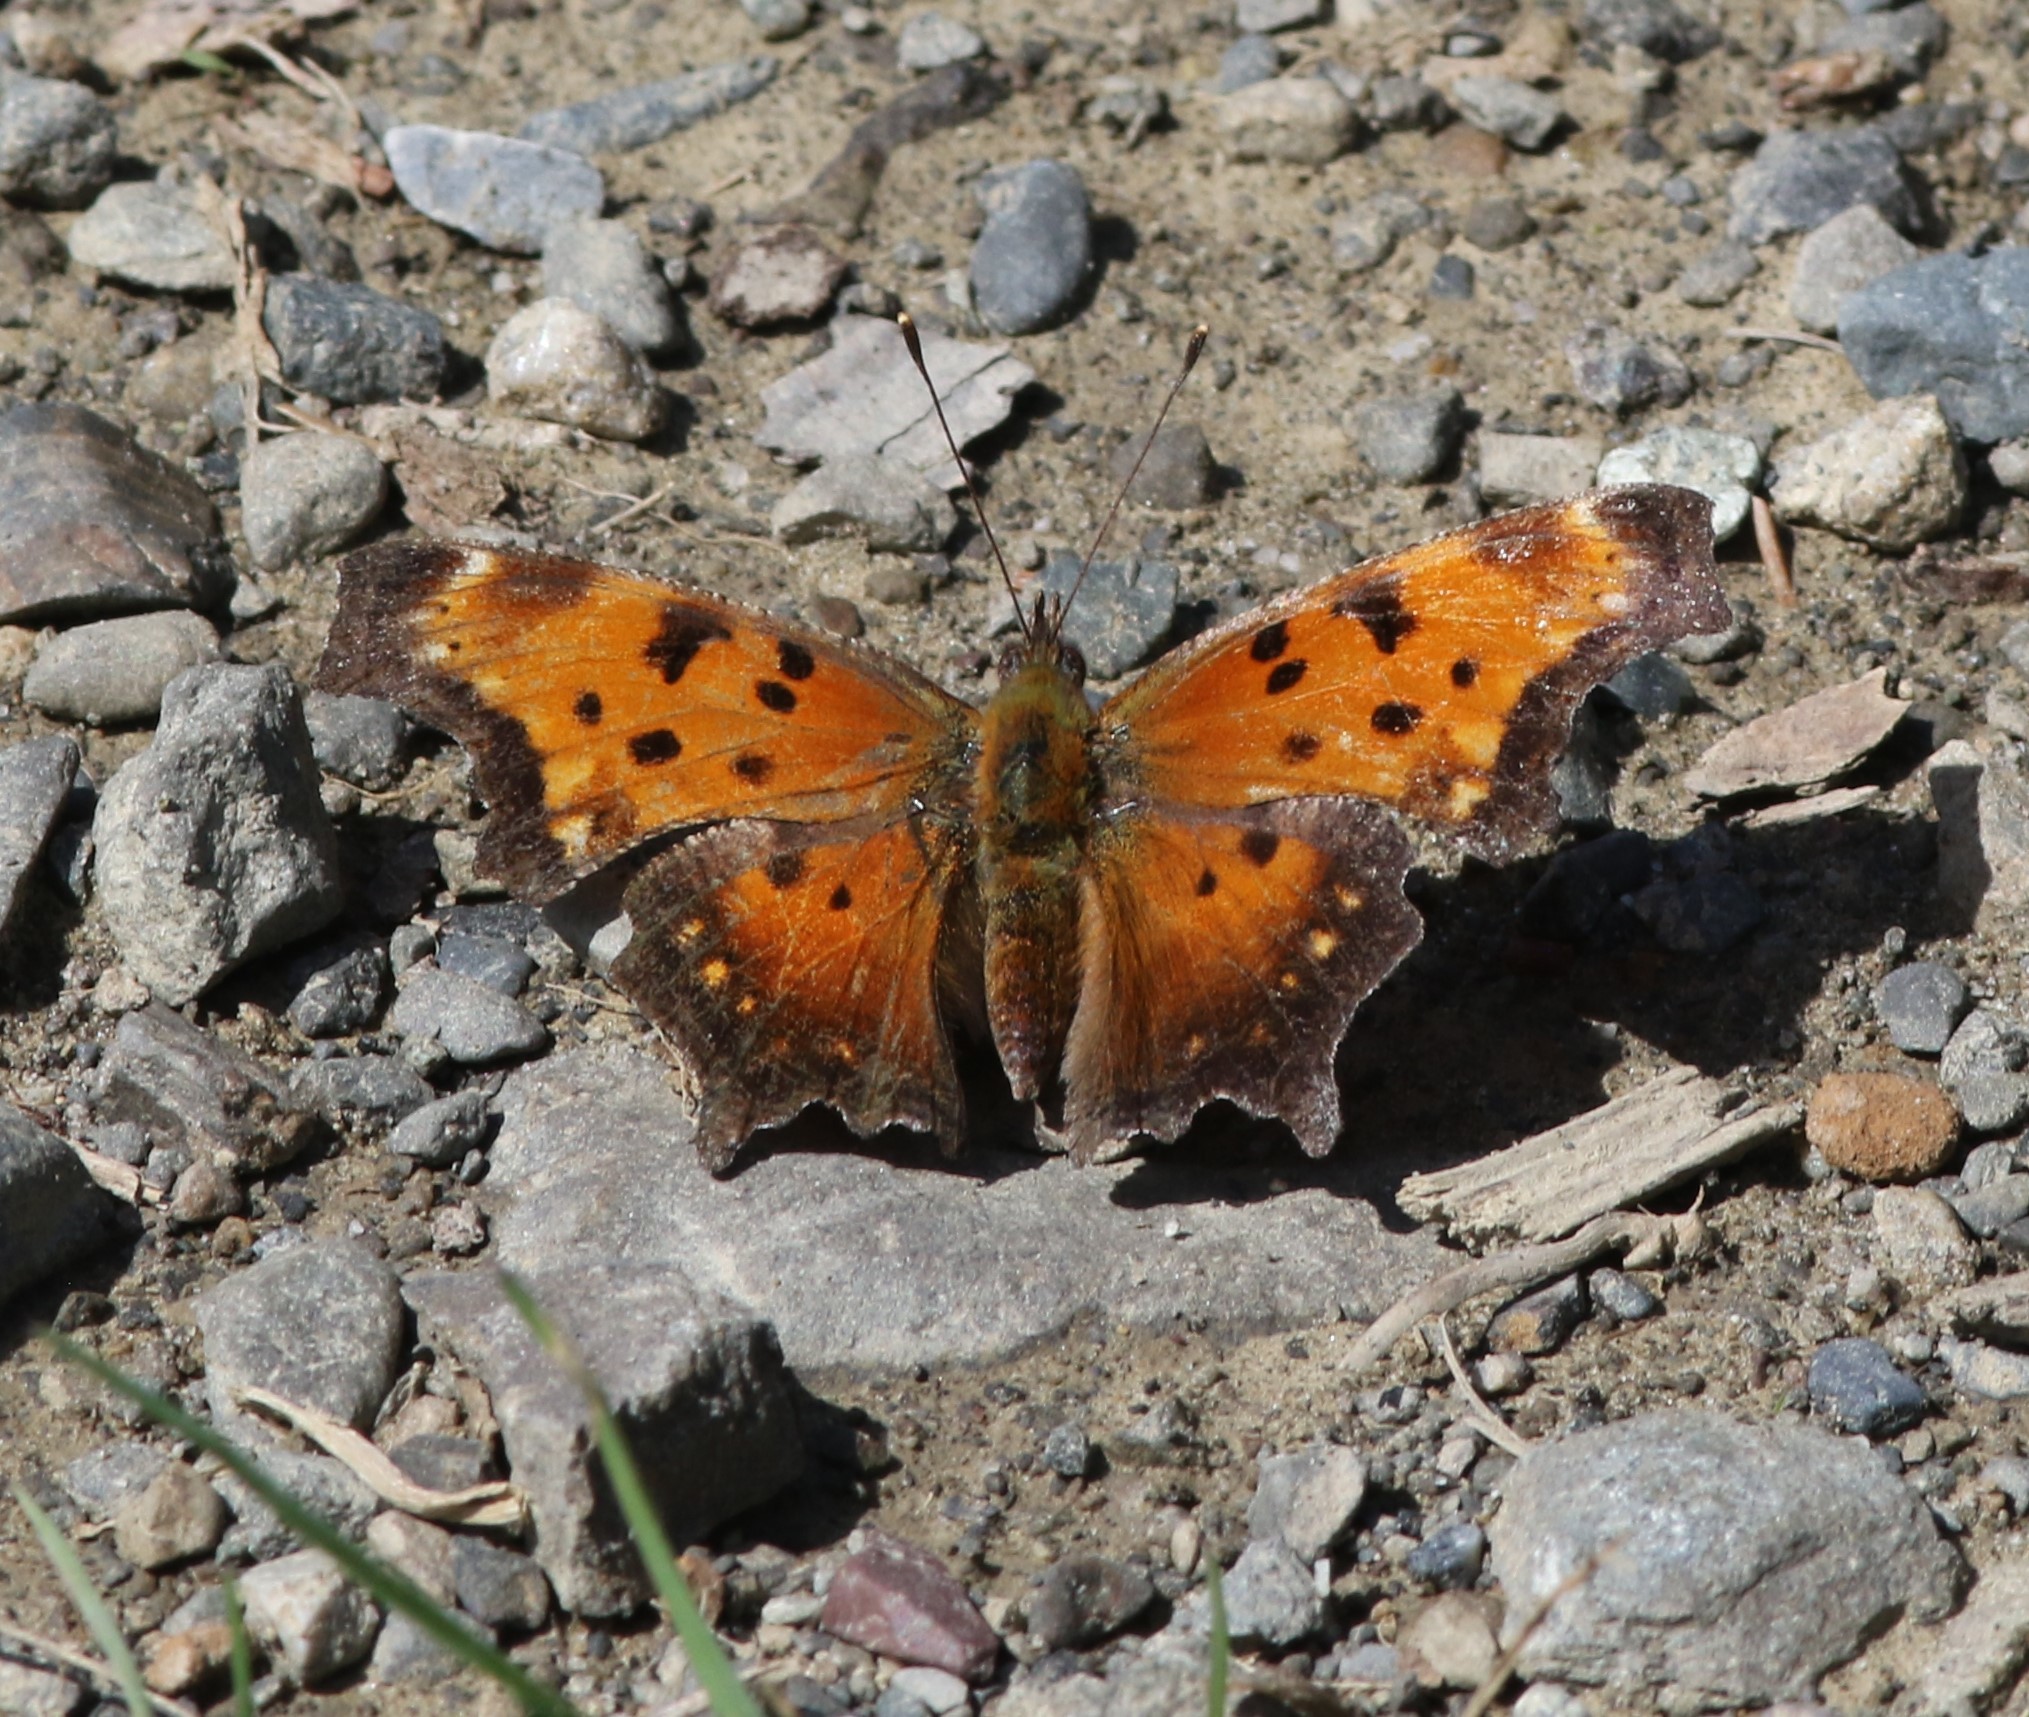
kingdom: Animalia
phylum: Arthropoda
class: Insecta
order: Lepidoptera
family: Nymphalidae
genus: Polygonia
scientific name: Polygonia progne
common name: Gray comma
